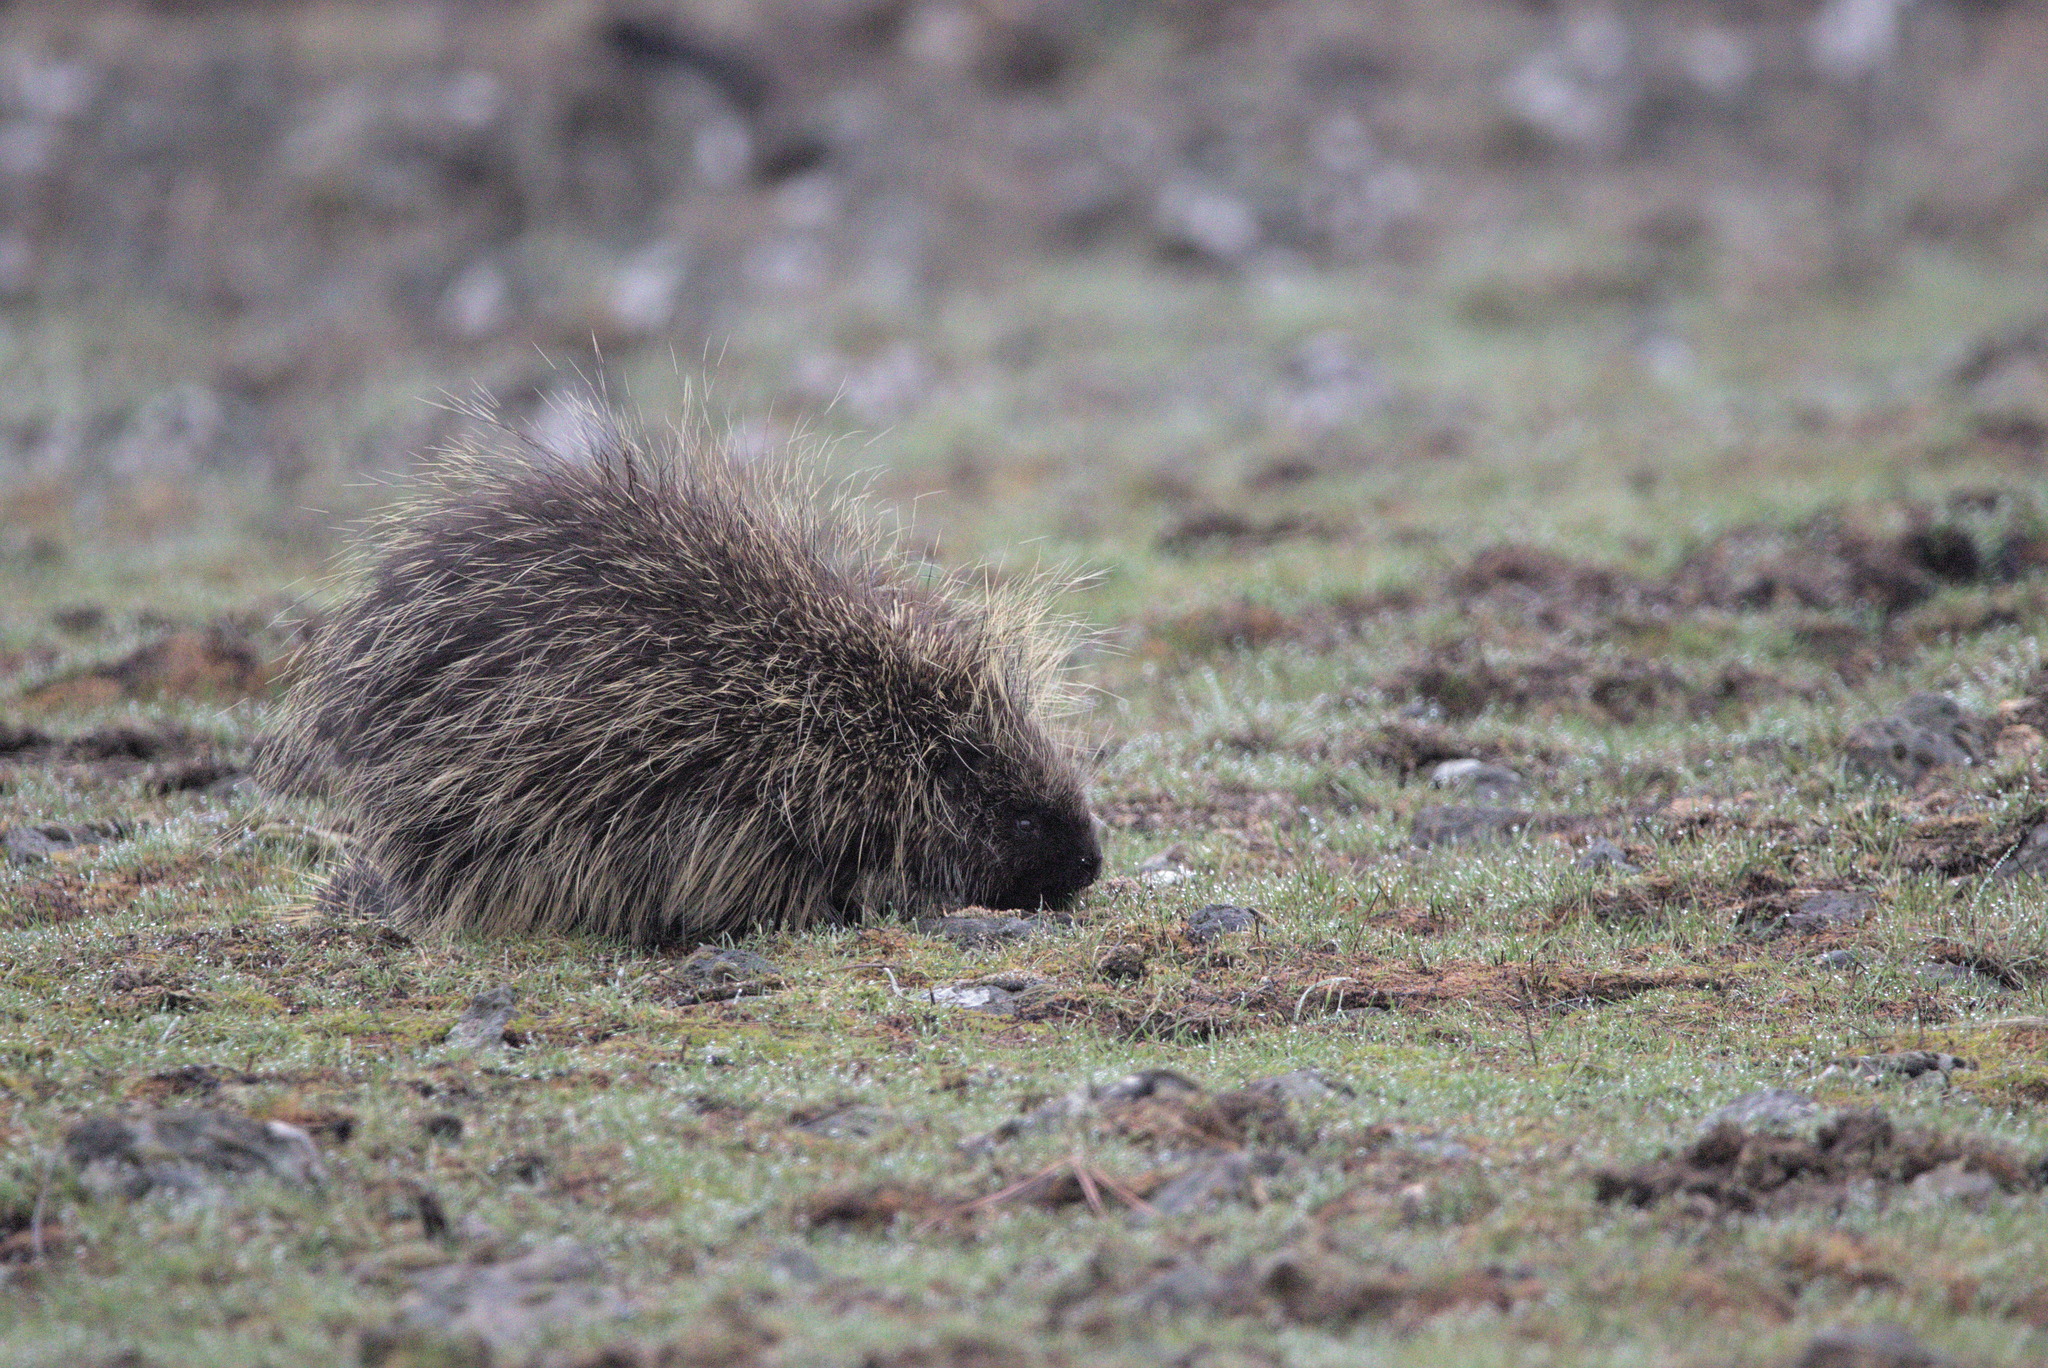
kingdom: Animalia
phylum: Chordata
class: Mammalia
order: Rodentia
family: Erethizontidae
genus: Erethizon
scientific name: Erethizon dorsatus
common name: North american porcupine
